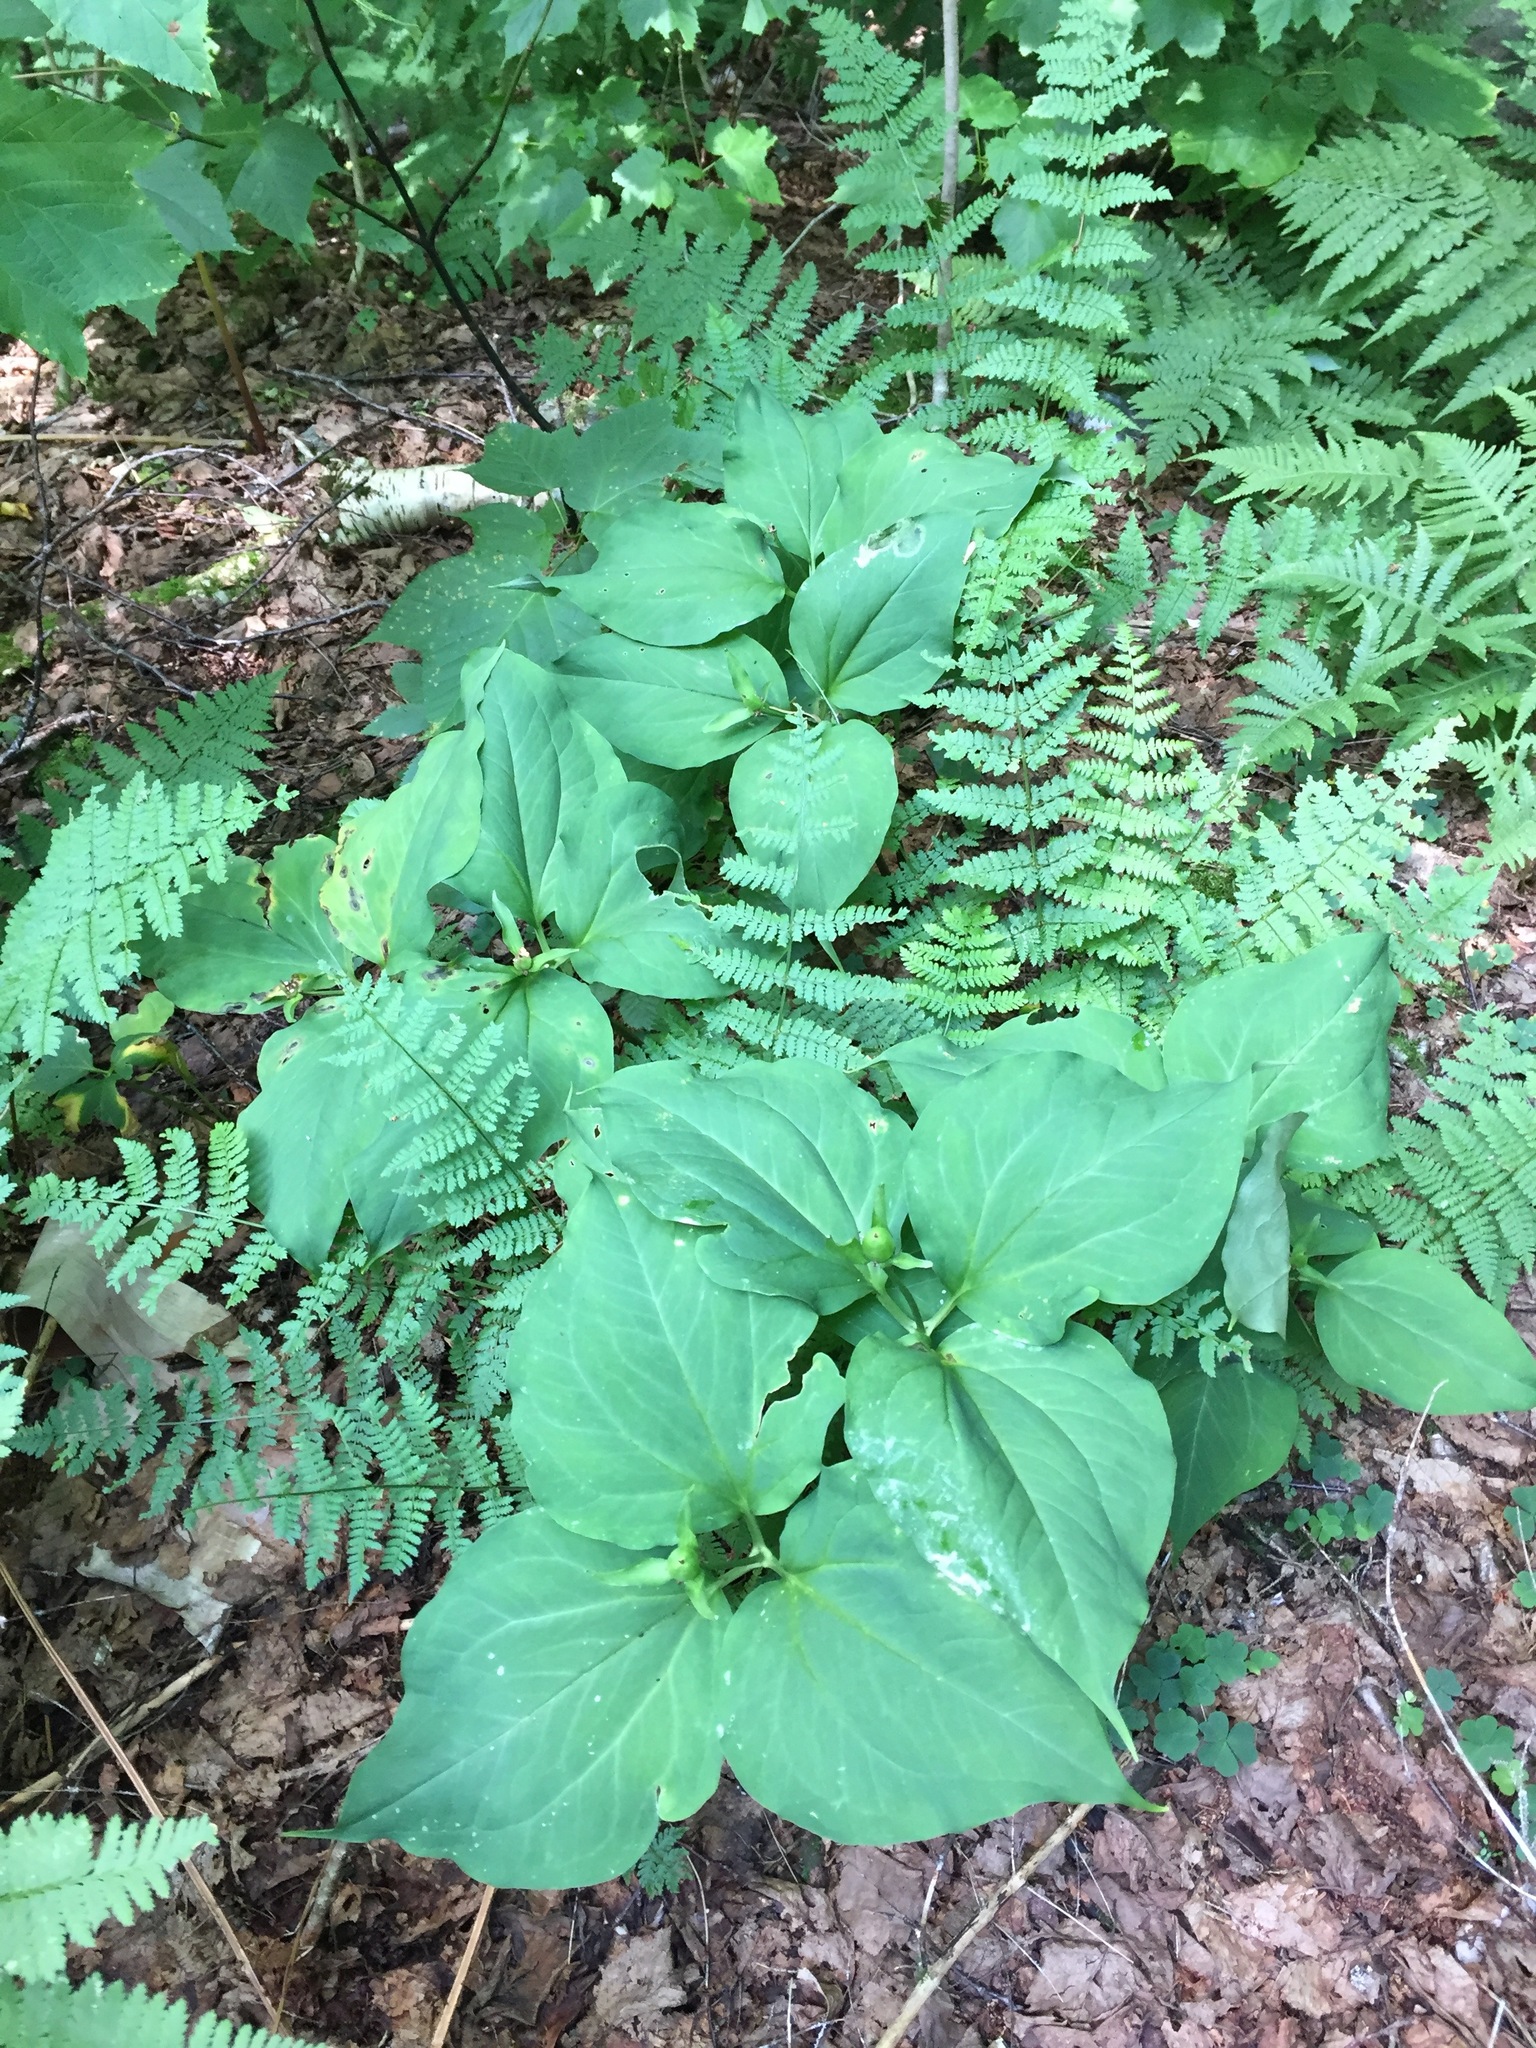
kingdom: Plantae
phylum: Tracheophyta
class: Liliopsida
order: Liliales
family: Melanthiaceae
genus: Trillium
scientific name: Trillium undulatum
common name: Paint trillium
